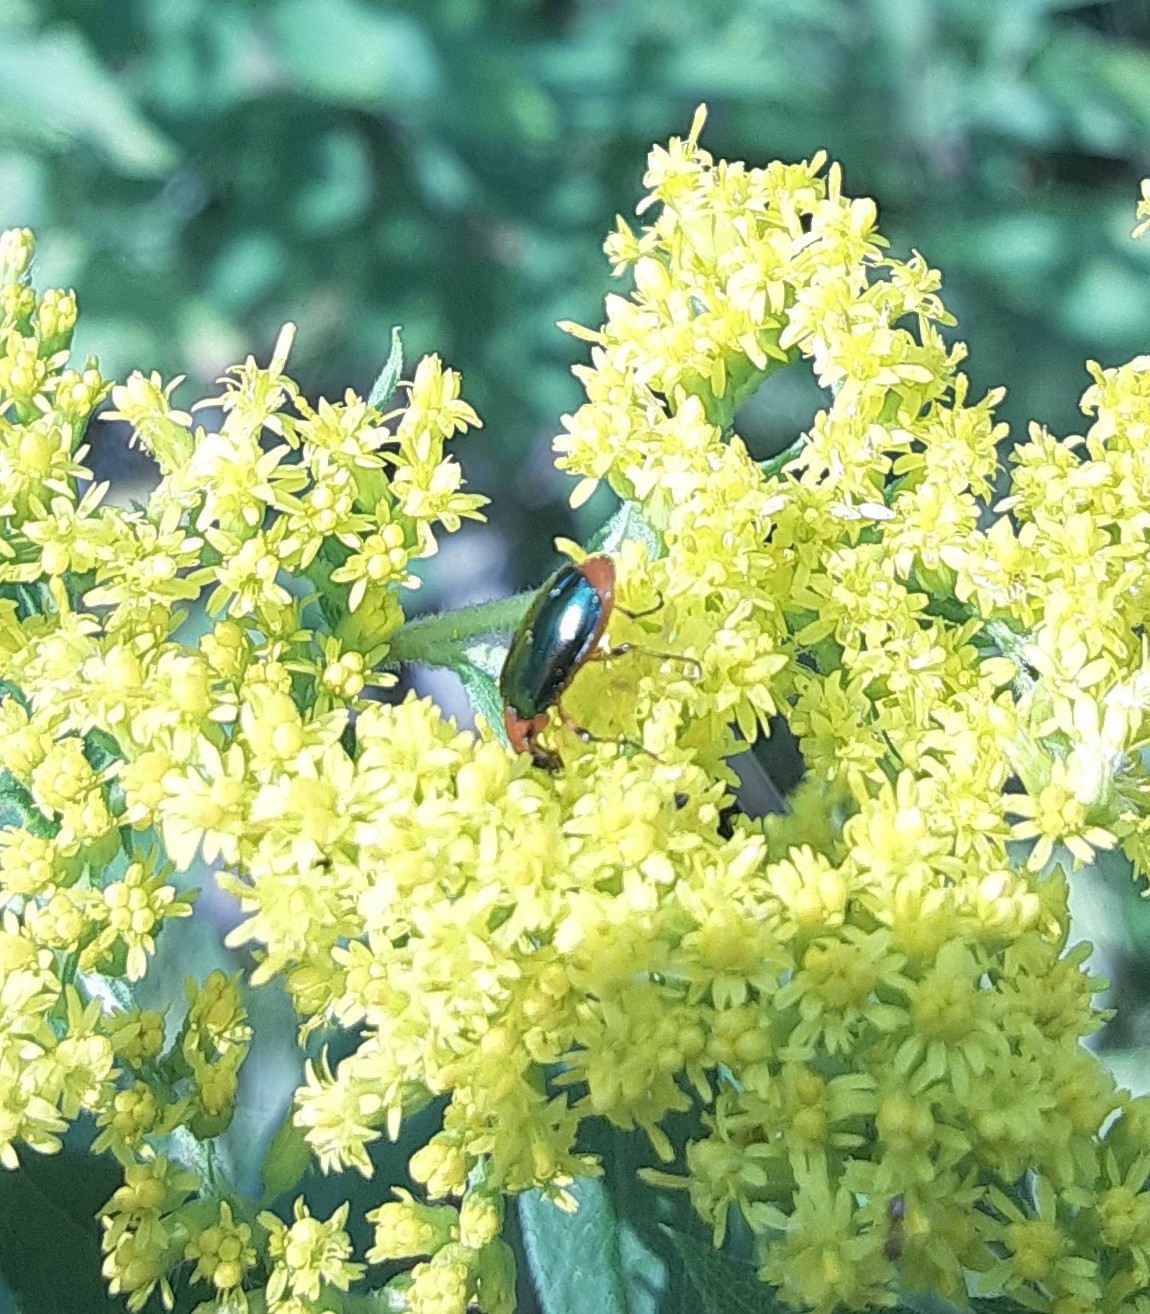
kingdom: Animalia
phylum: Arthropoda
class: Insecta
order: Coleoptera
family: Carabidae
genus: Lebia
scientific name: Lebia viridipennis
